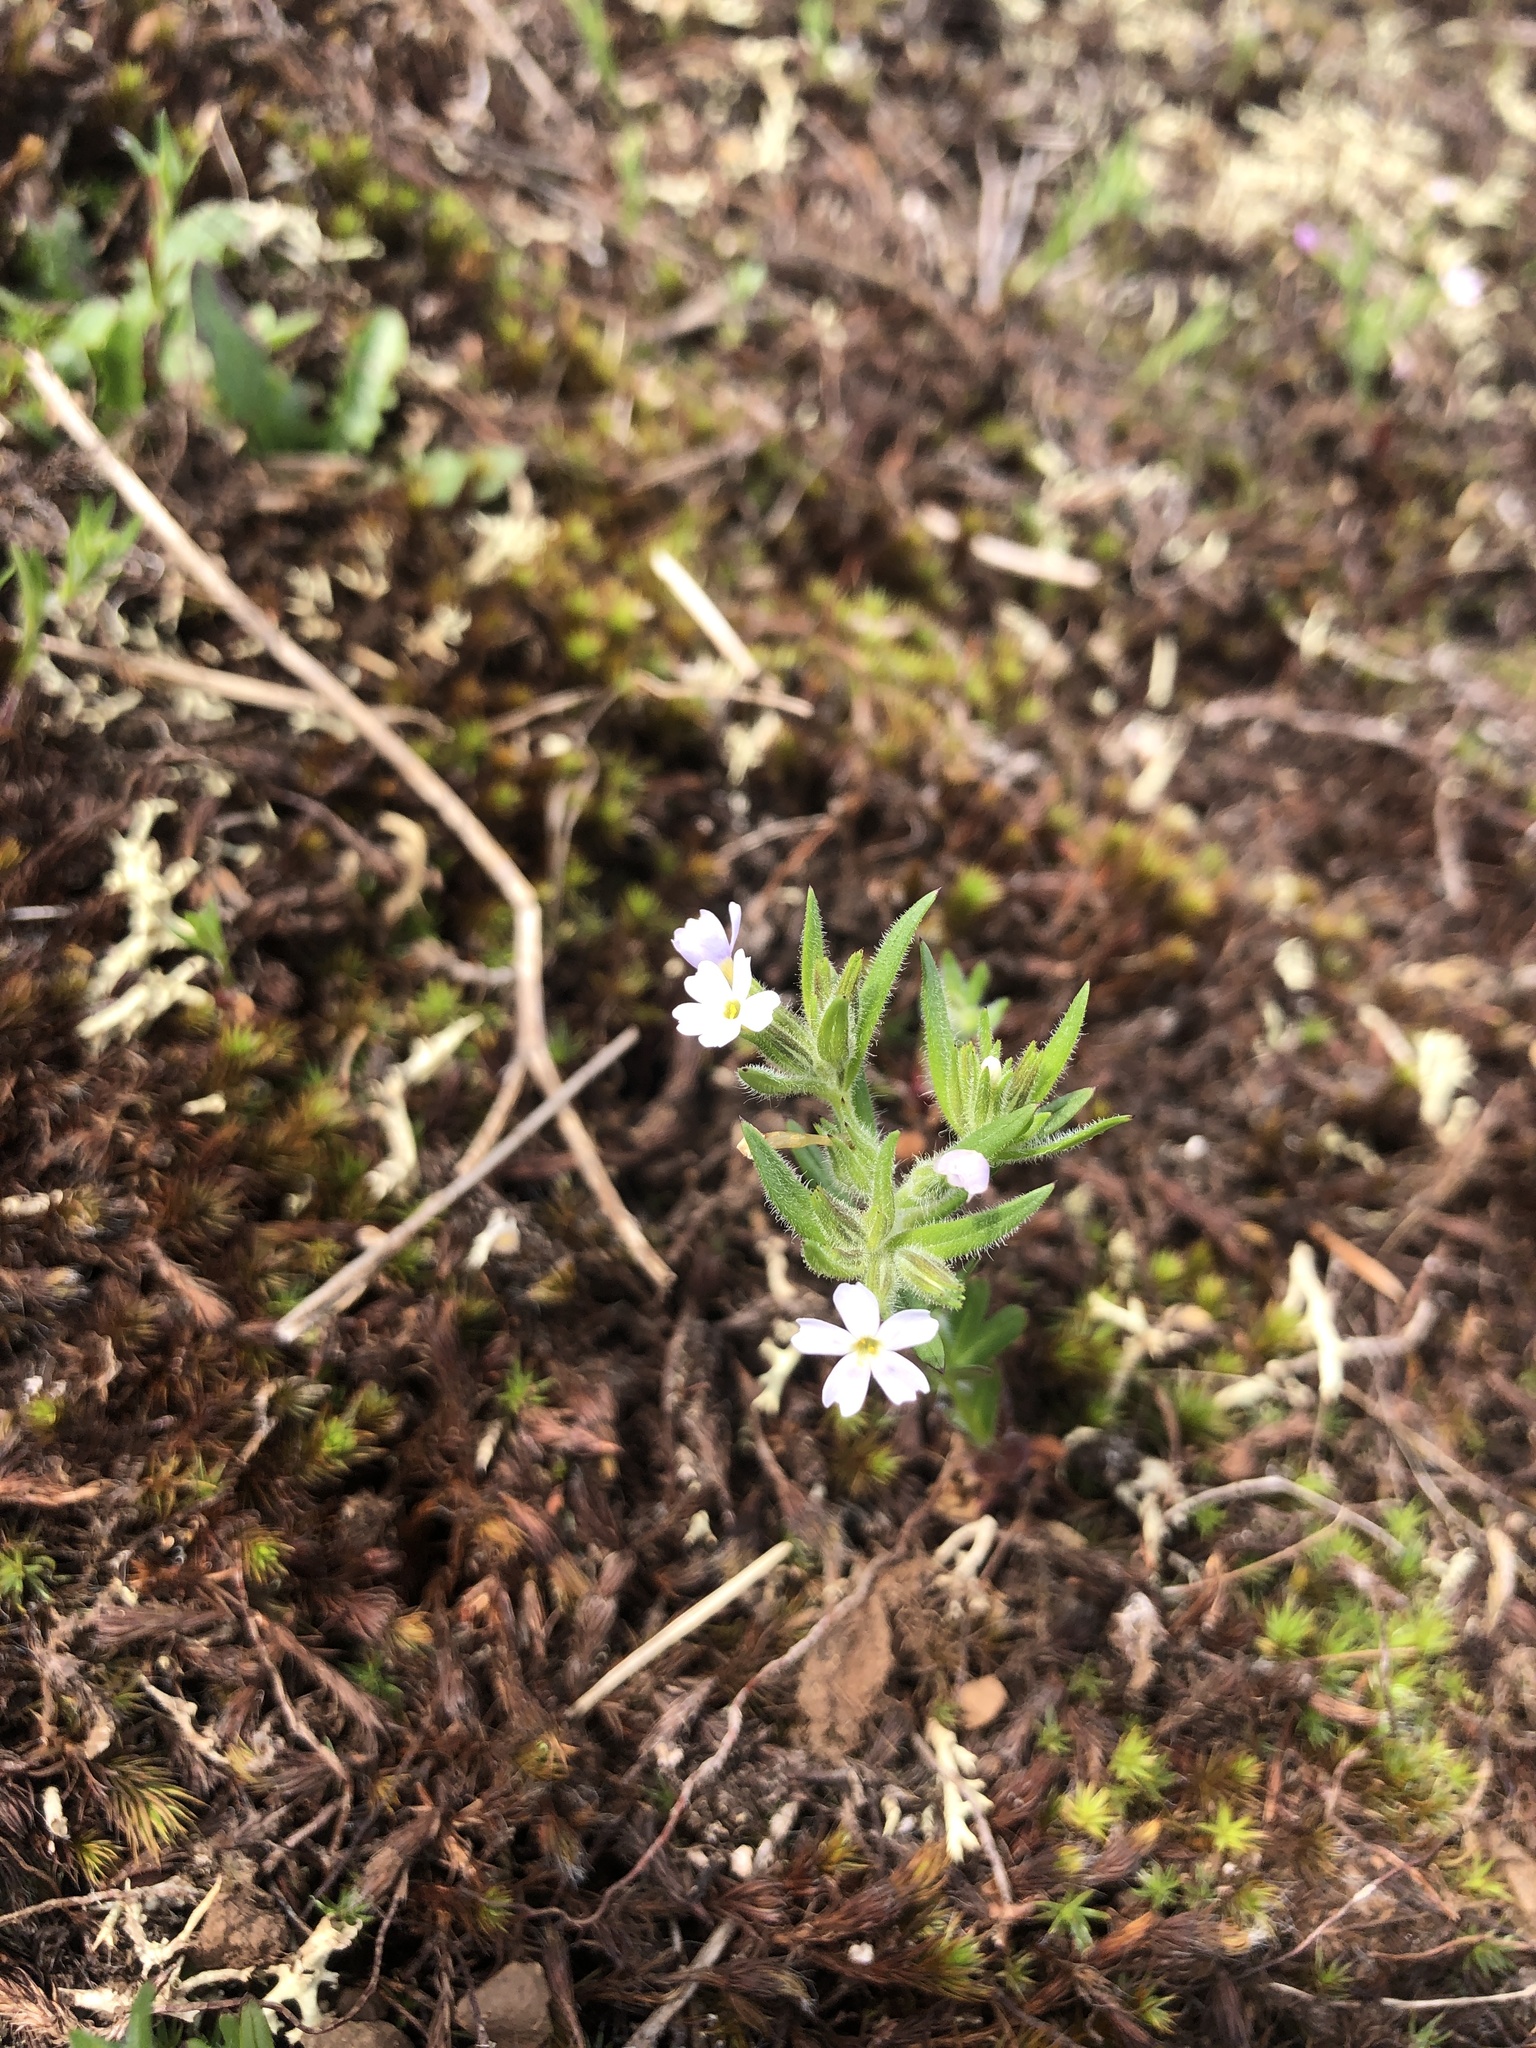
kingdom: Plantae
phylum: Tracheophyta
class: Magnoliopsida
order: Ericales
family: Polemoniaceae
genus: Phlox
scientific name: Phlox gracilis
